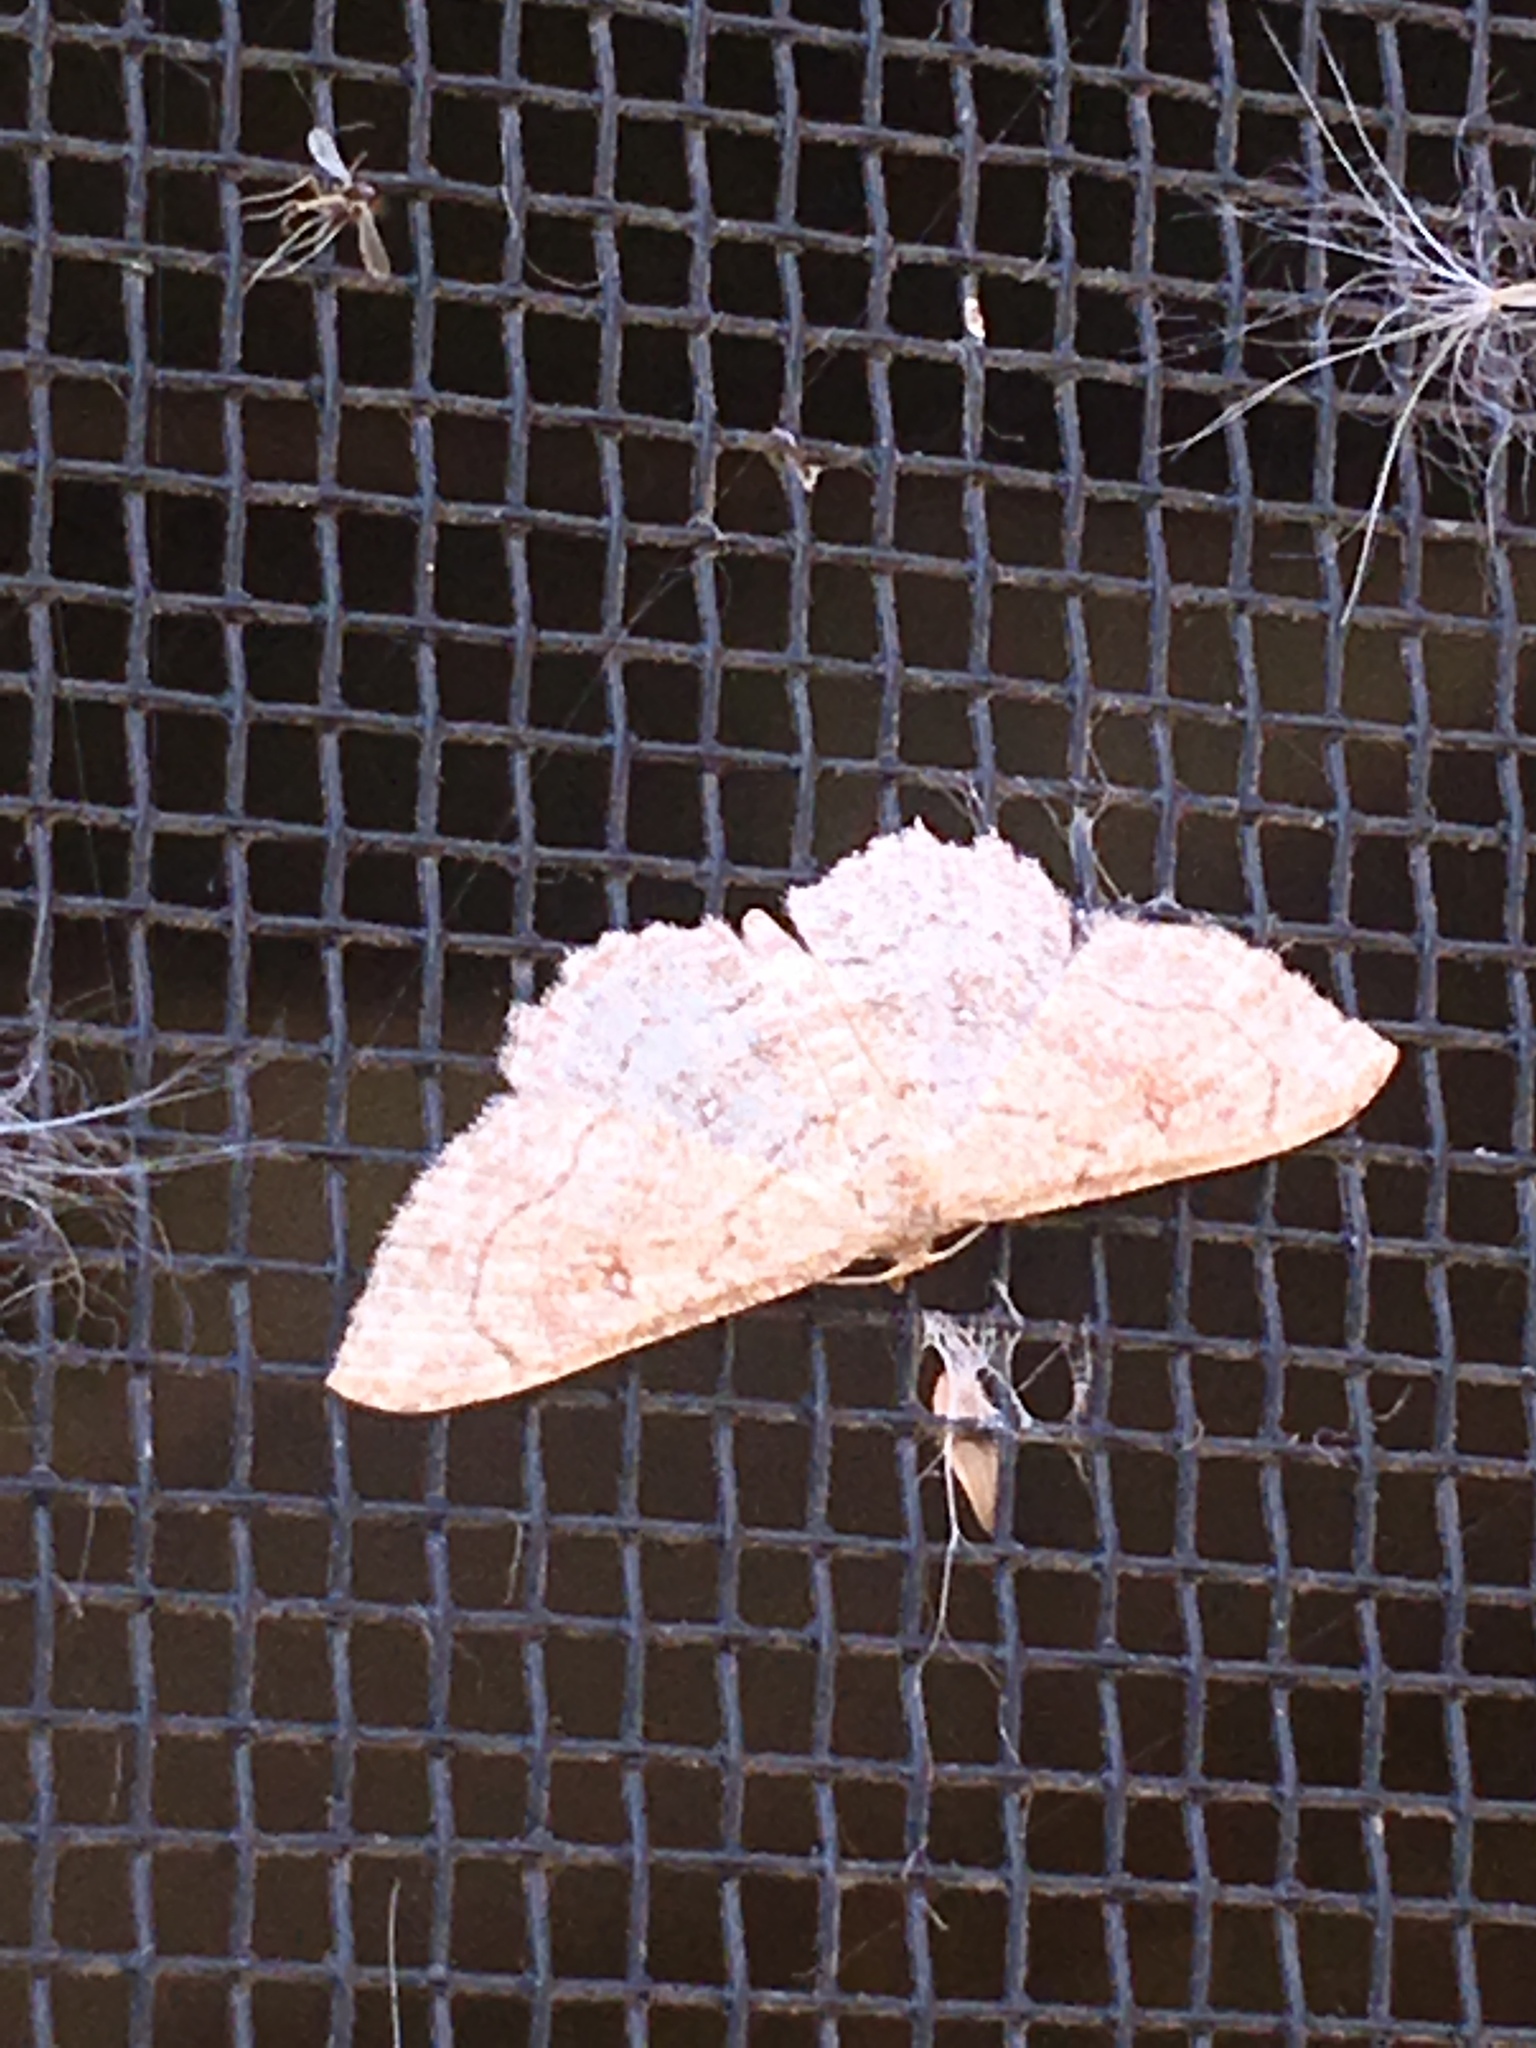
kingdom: Animalia
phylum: Arthropoda
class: Insecta
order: Lepidoptera
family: Geometridae
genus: Cyclophora
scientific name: Cyclophora nanaria
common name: Cankerworm
